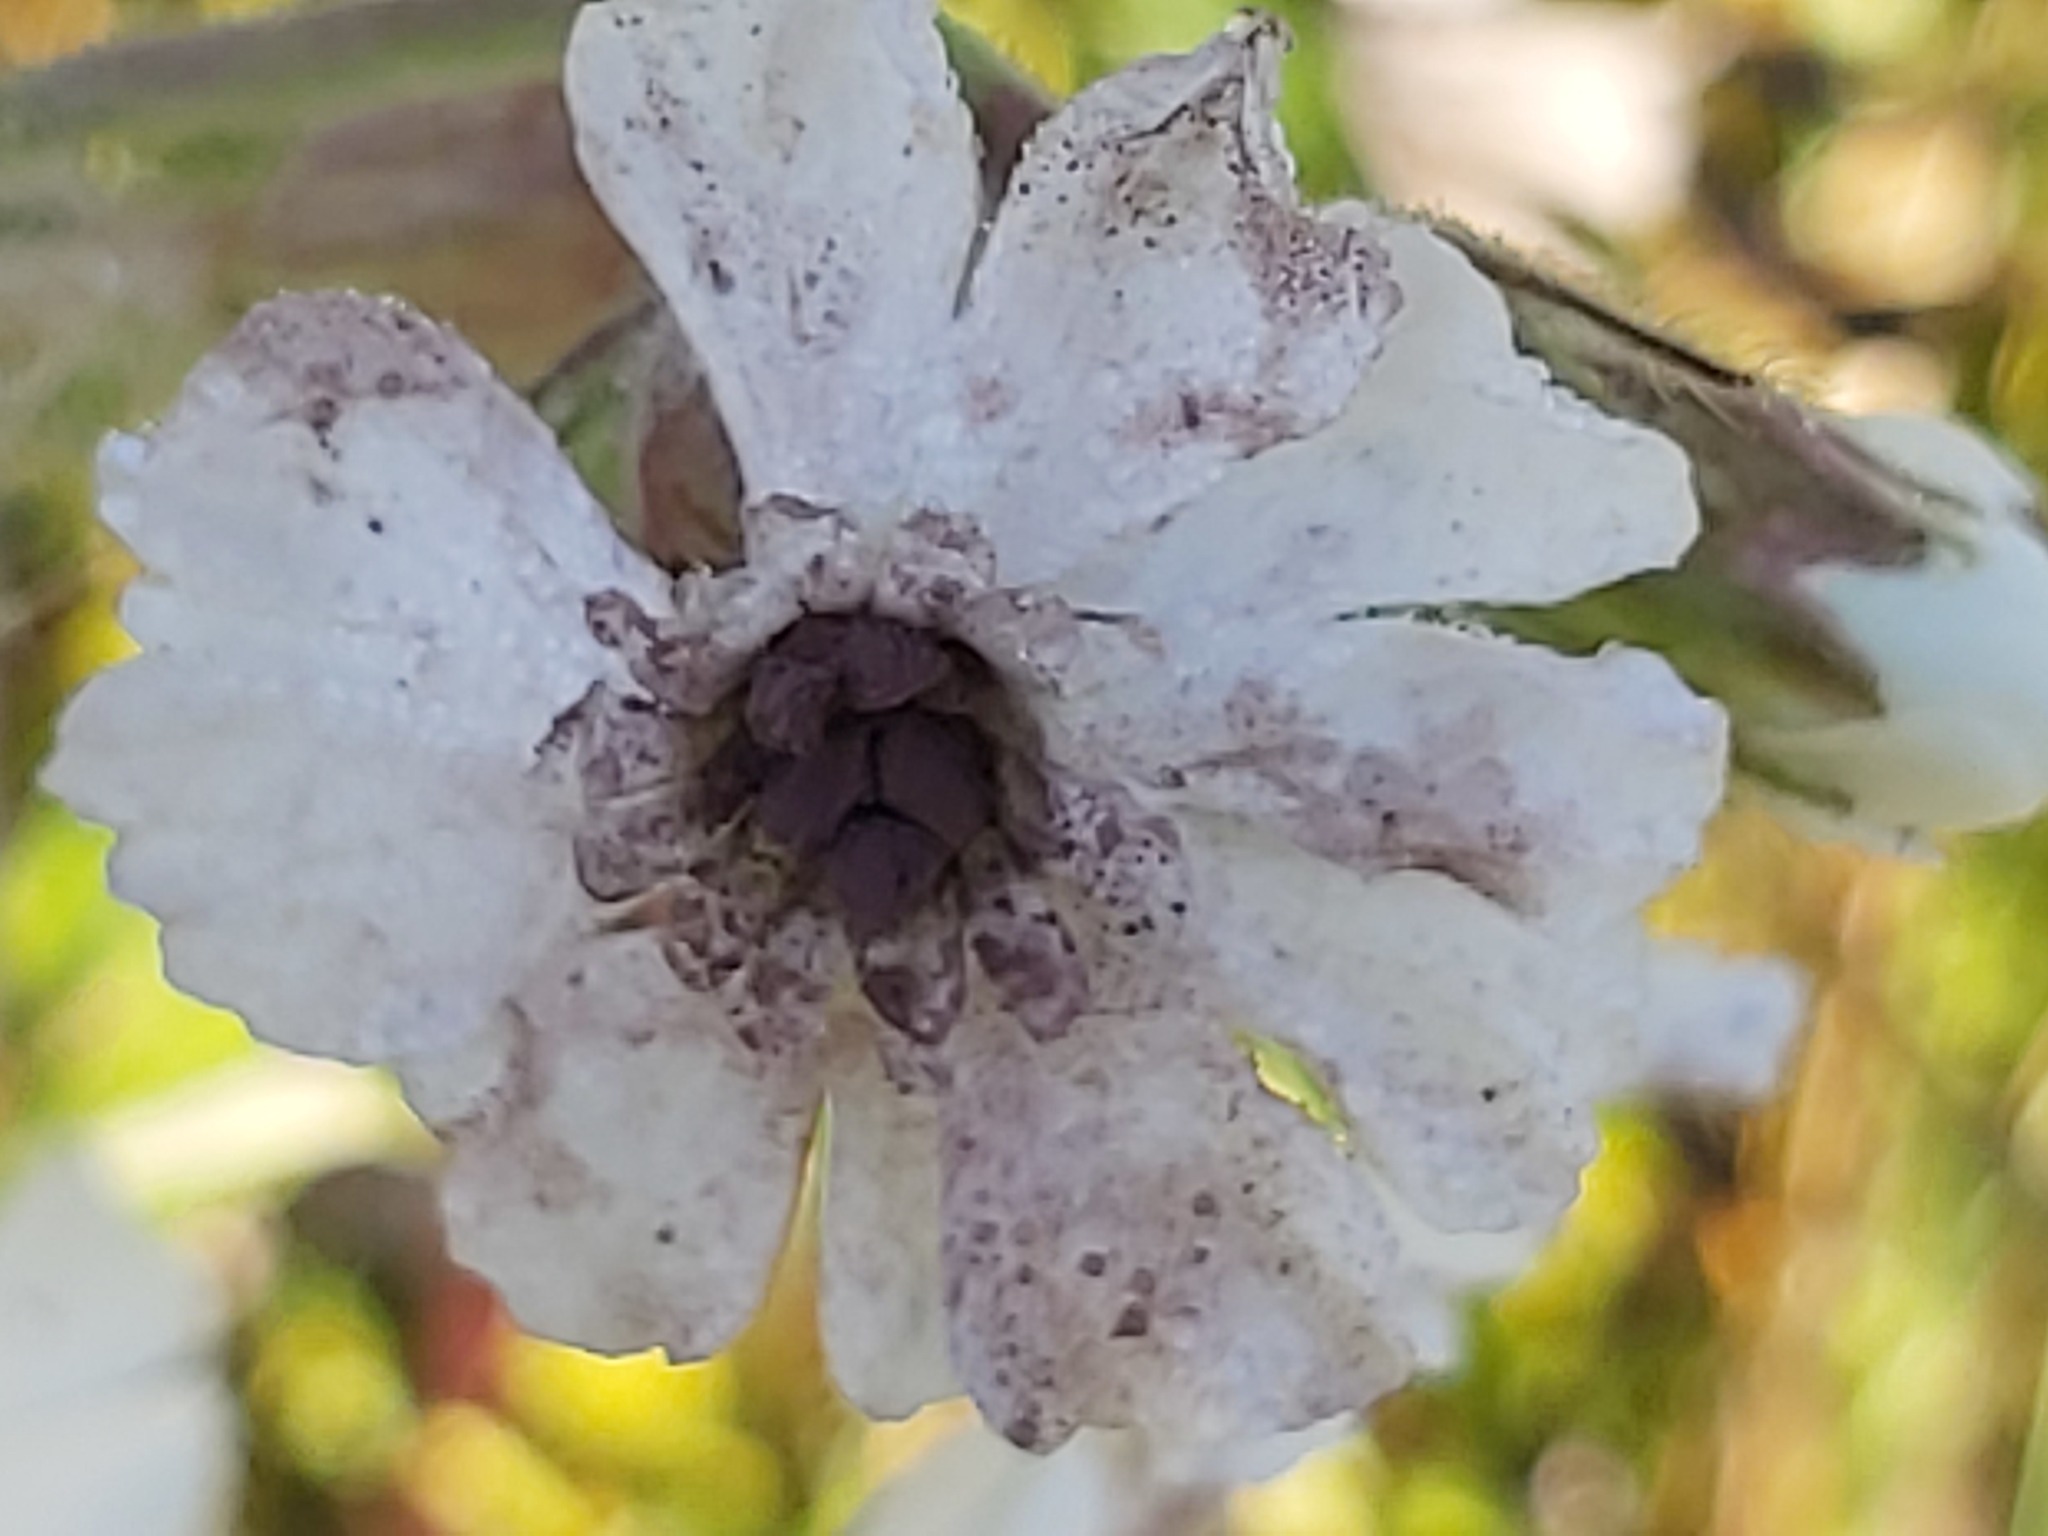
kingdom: Fungi
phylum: Basidiomycota
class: Microbotryomycetes
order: Microbotryales
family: Microbotryaceae
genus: Microbotryum
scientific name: Microbotryum lychnidis-dioicae
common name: Campion anther smut
